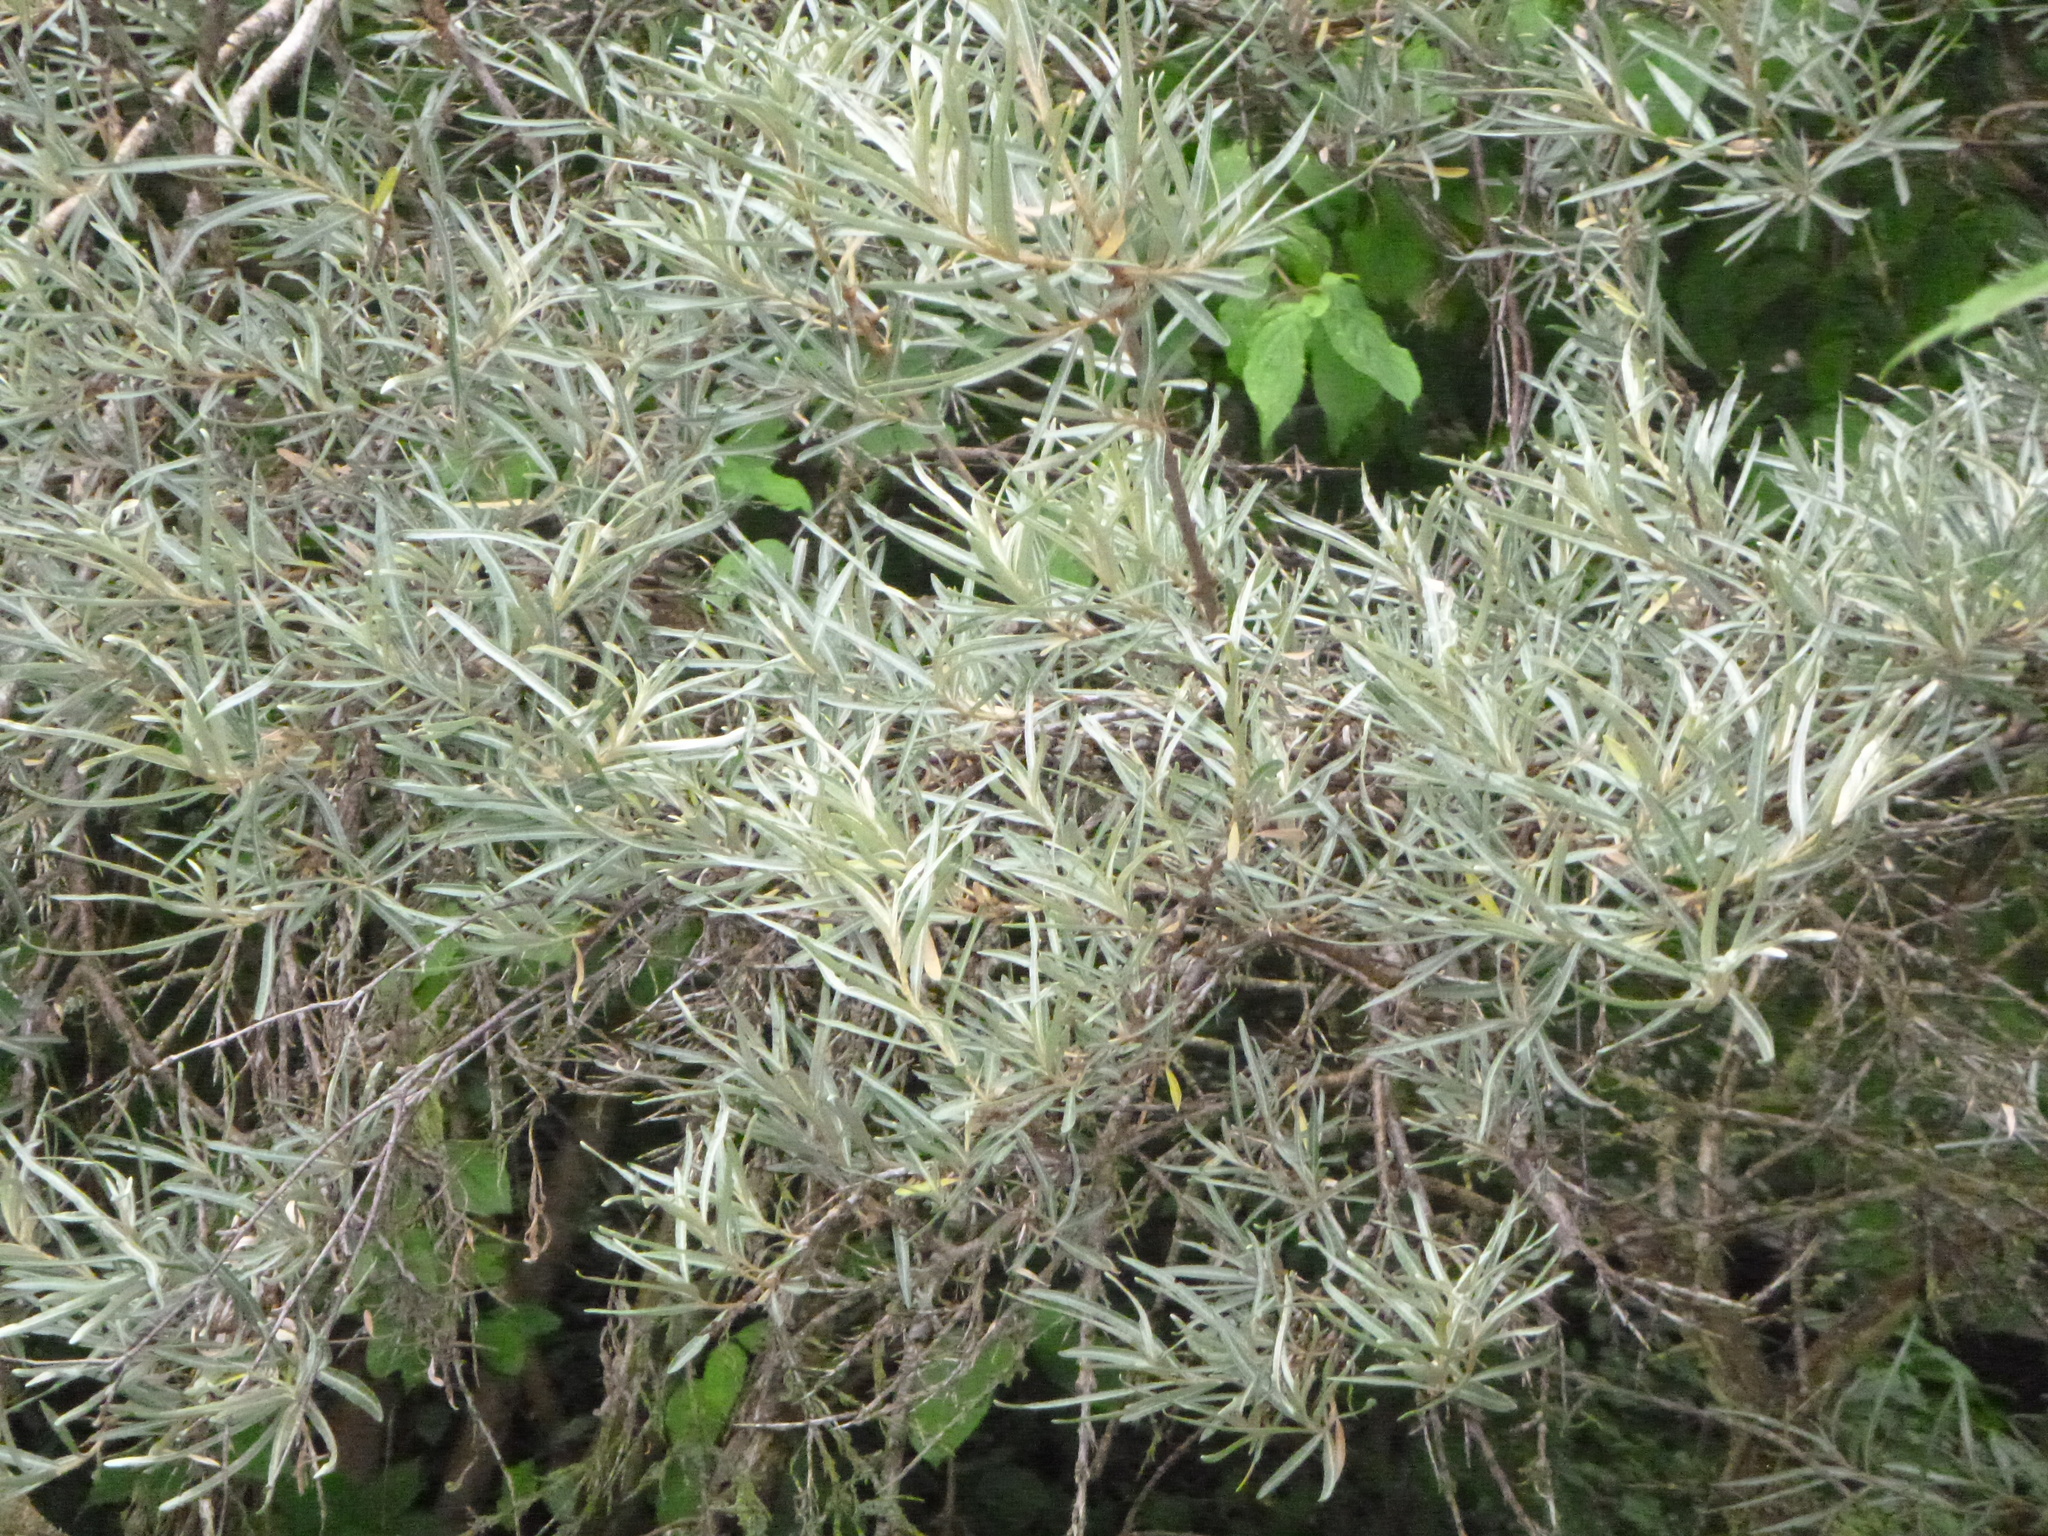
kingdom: Plantae
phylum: Tracheophyta
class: Magnoliopsida
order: Rosales
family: Elaeagnaceae
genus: Hippophae
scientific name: Hippophae rhamnoides
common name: Sea-buckthorn
